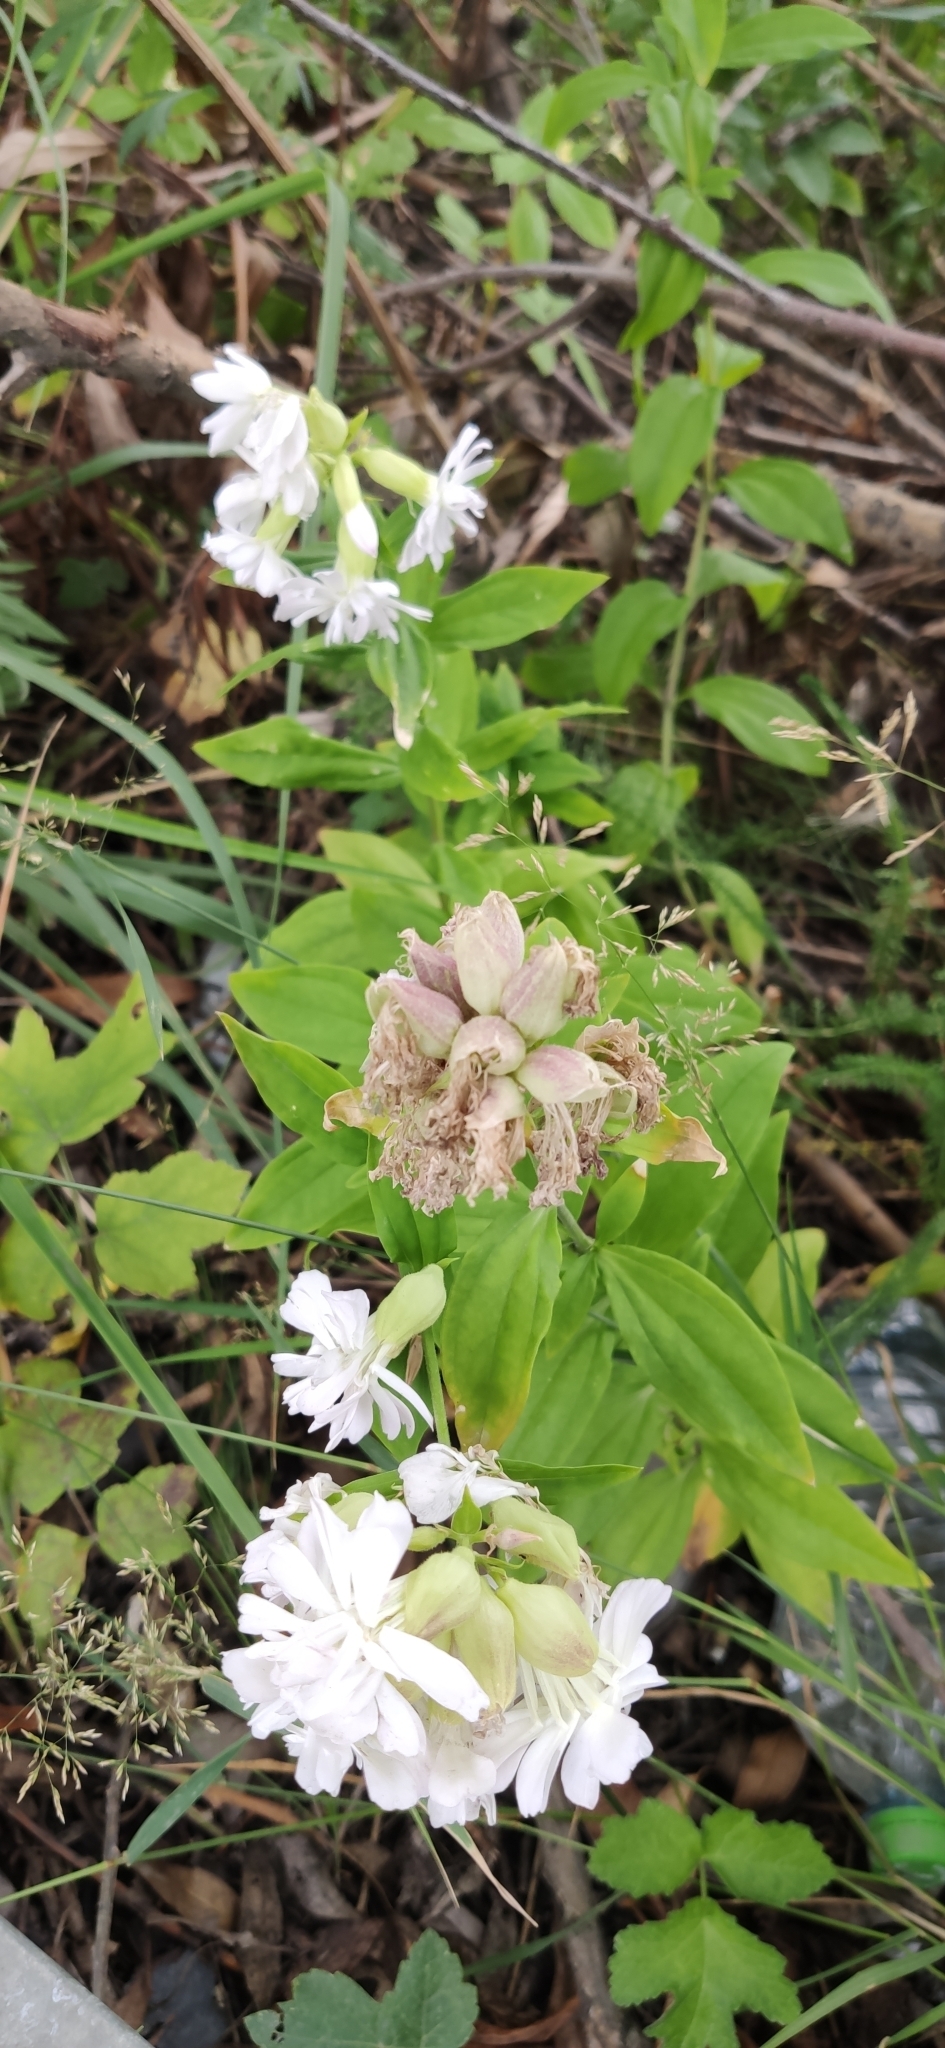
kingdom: Plantae
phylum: Tracheophyta
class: Magnoliopsida
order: Caryophyllales
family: Caryophyllaceae
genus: Saponaria
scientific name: Saponaria officinalis
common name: Soapwort
